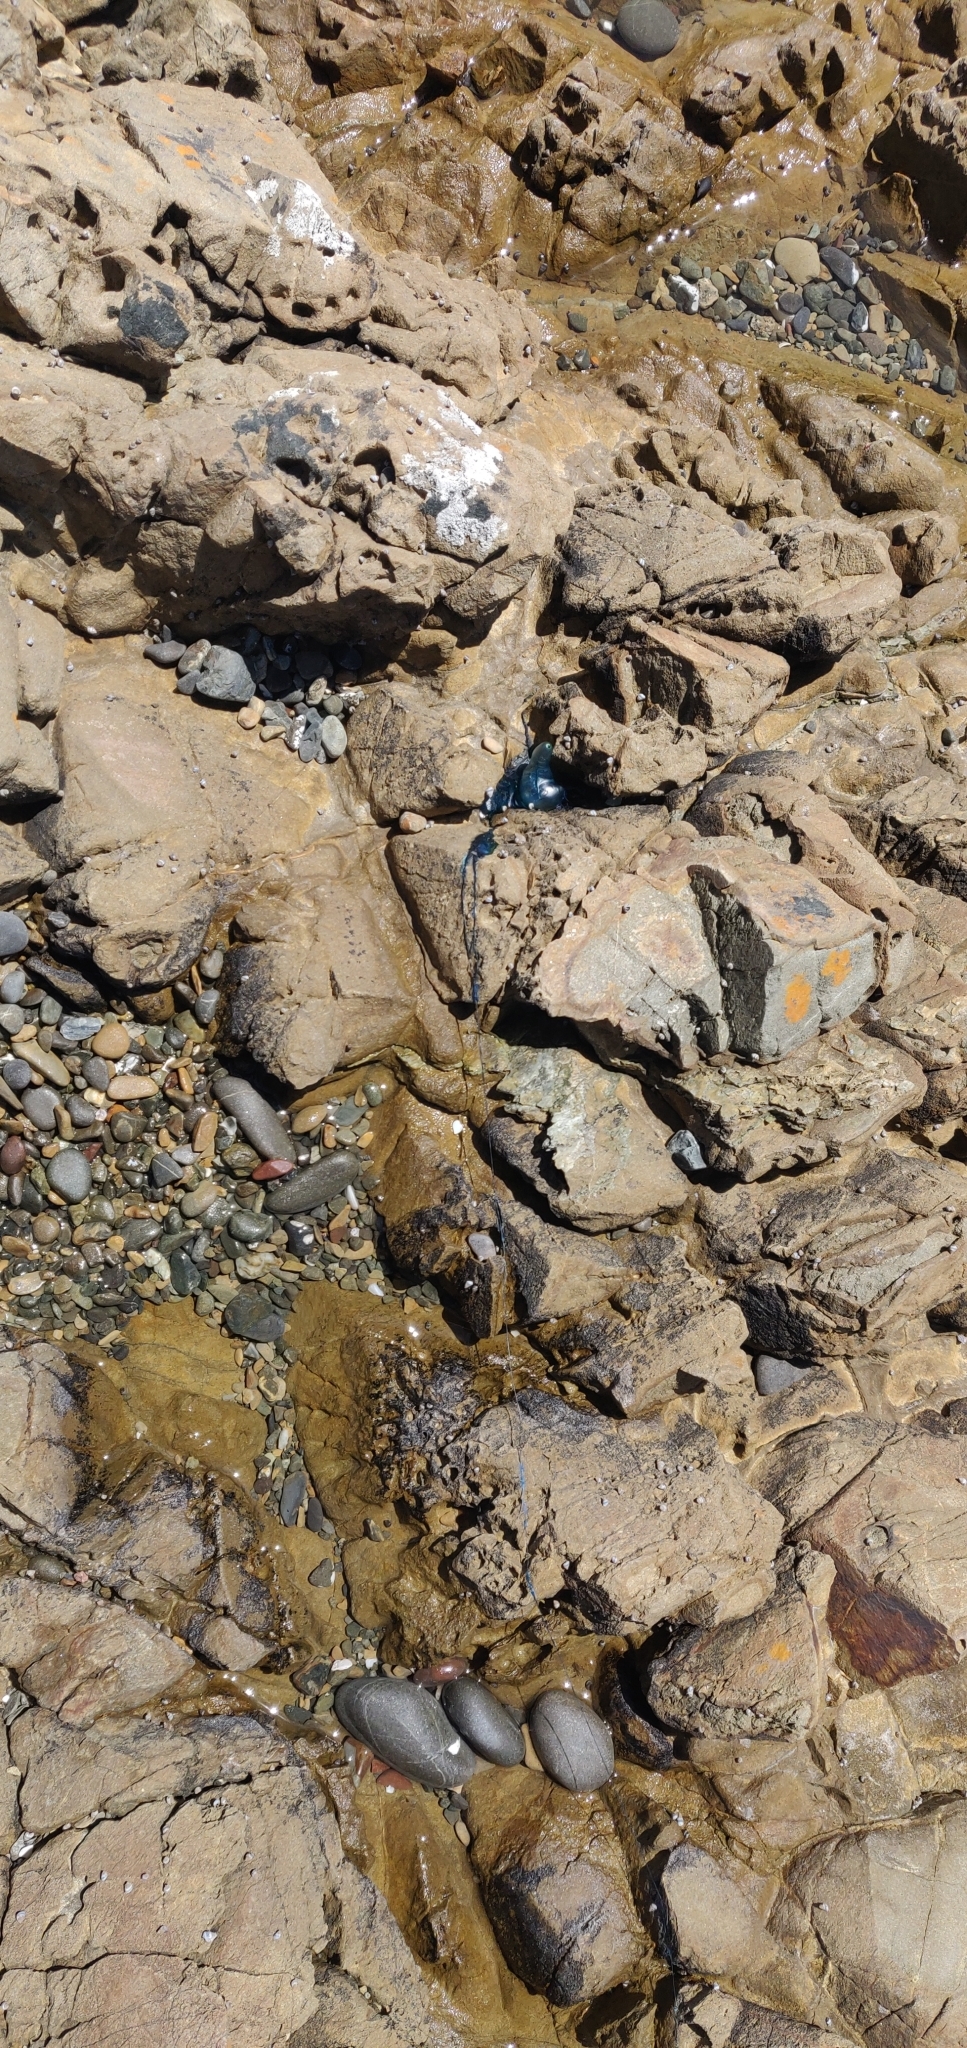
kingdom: Animalia
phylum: Cnidaria
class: Hydrozoa
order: Siphonophorae
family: Physaliidae
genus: Physalia
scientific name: Physalia physalis
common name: Portuguese man-of-war
